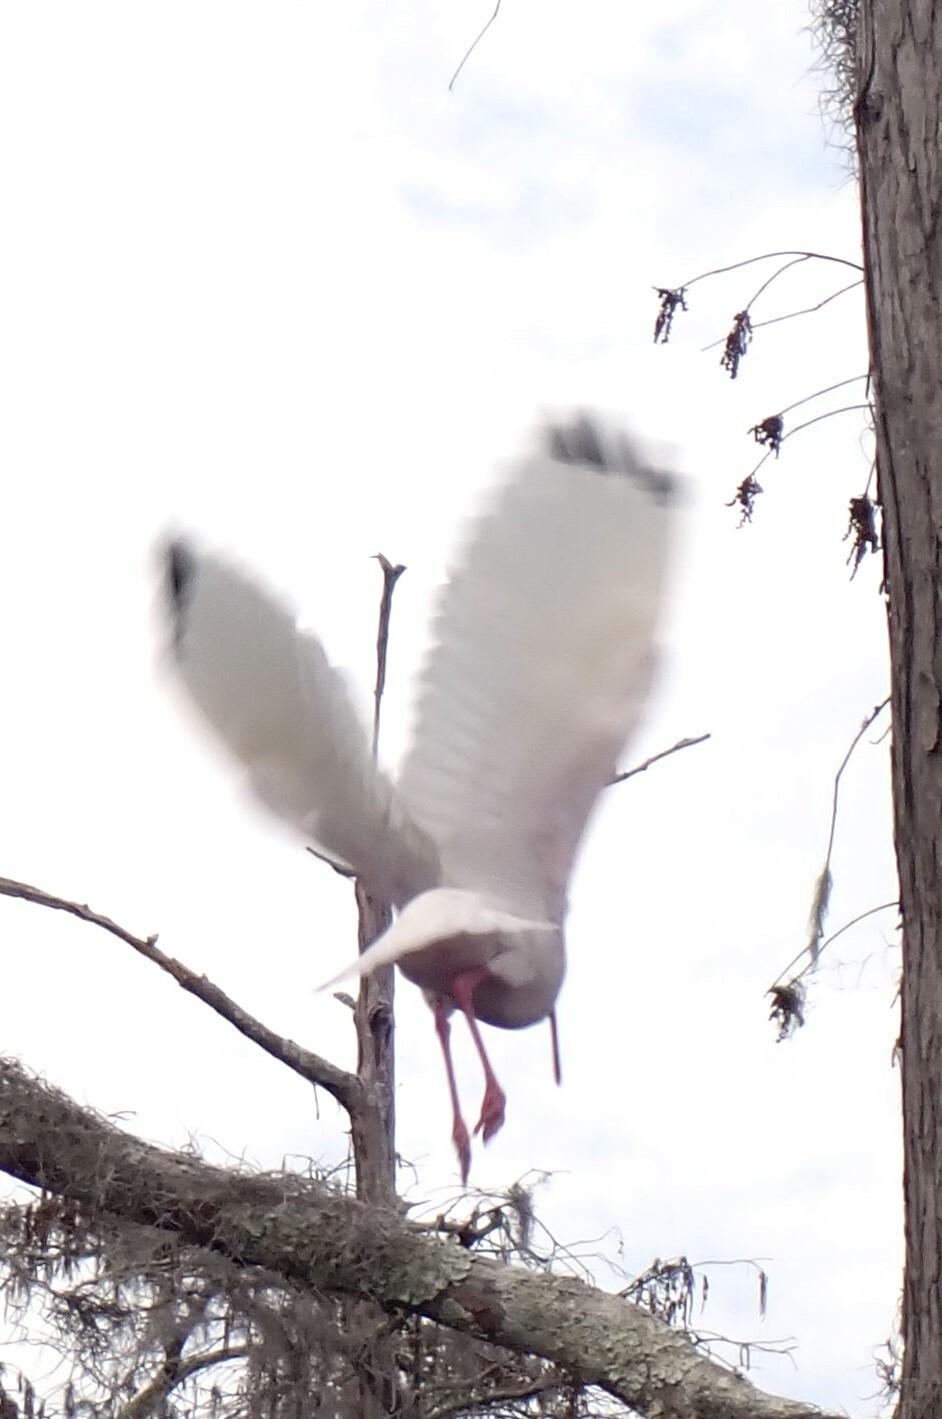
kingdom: Animalia
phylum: Chordata
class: Aves
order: Pelecaniformes
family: Threskiornithidae
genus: Eudocimus
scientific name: Eudocimus albus
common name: White ibis
